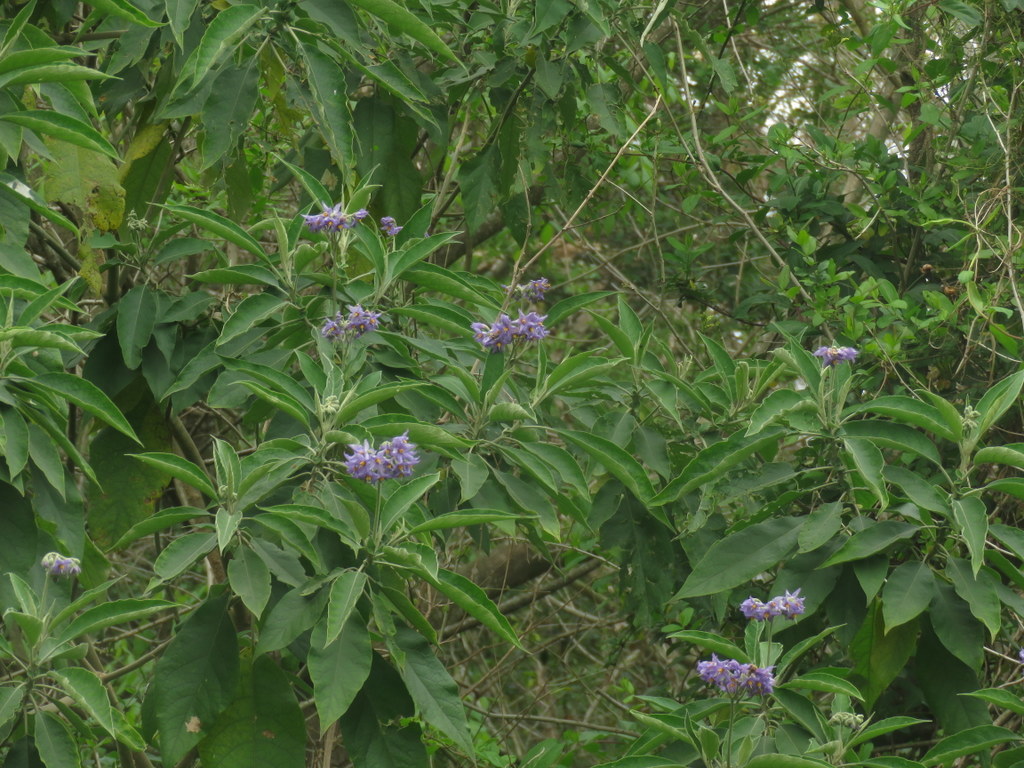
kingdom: Plantae
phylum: Tracheophyta
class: Magnoliopsida
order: Solanales
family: Solanaceae
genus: Solanum
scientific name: Solanum granulosoleprosum
